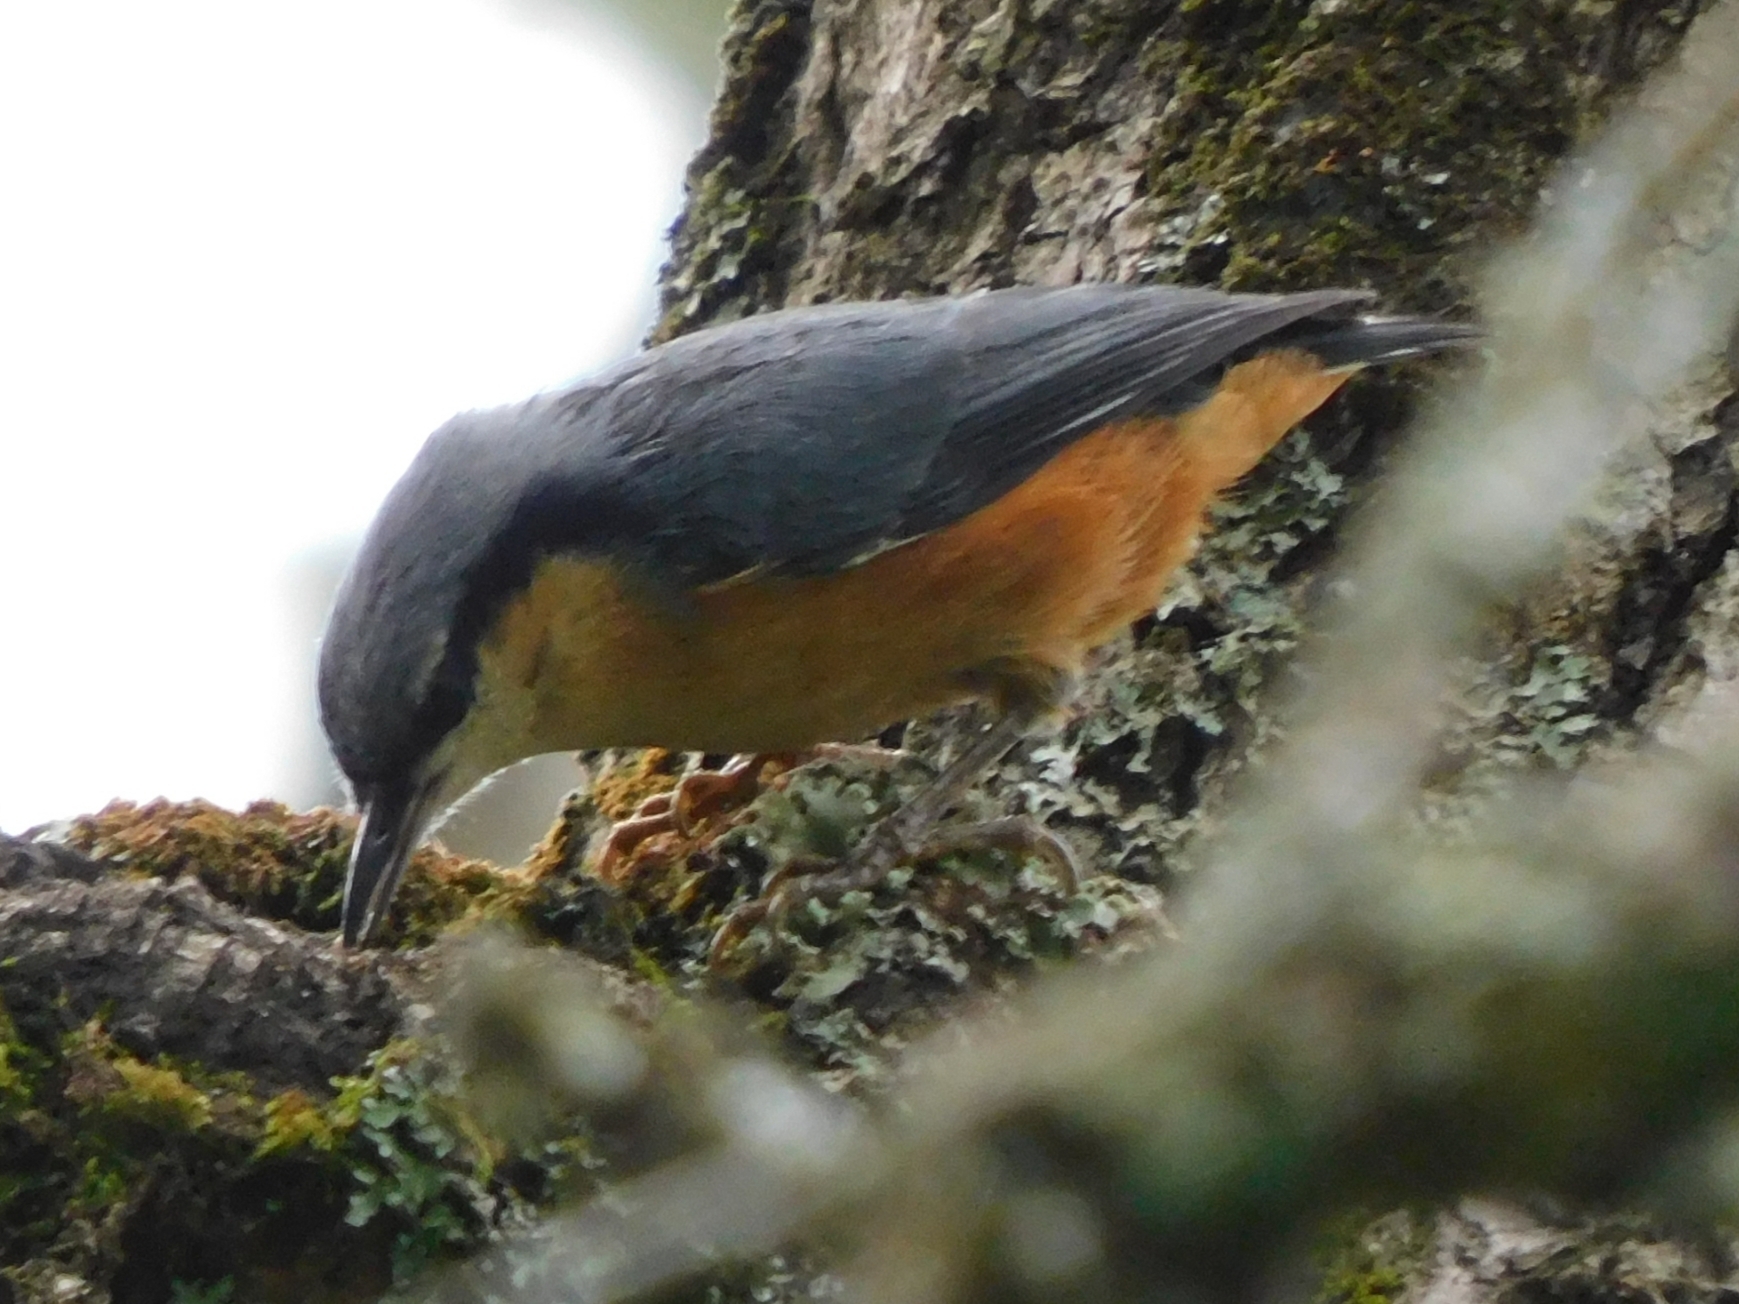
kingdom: Animalia
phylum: Chordata
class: Aves
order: Passeriformes
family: Sittidae
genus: Sitta
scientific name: Sitta himalayensis
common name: White-tailed nuthatch
